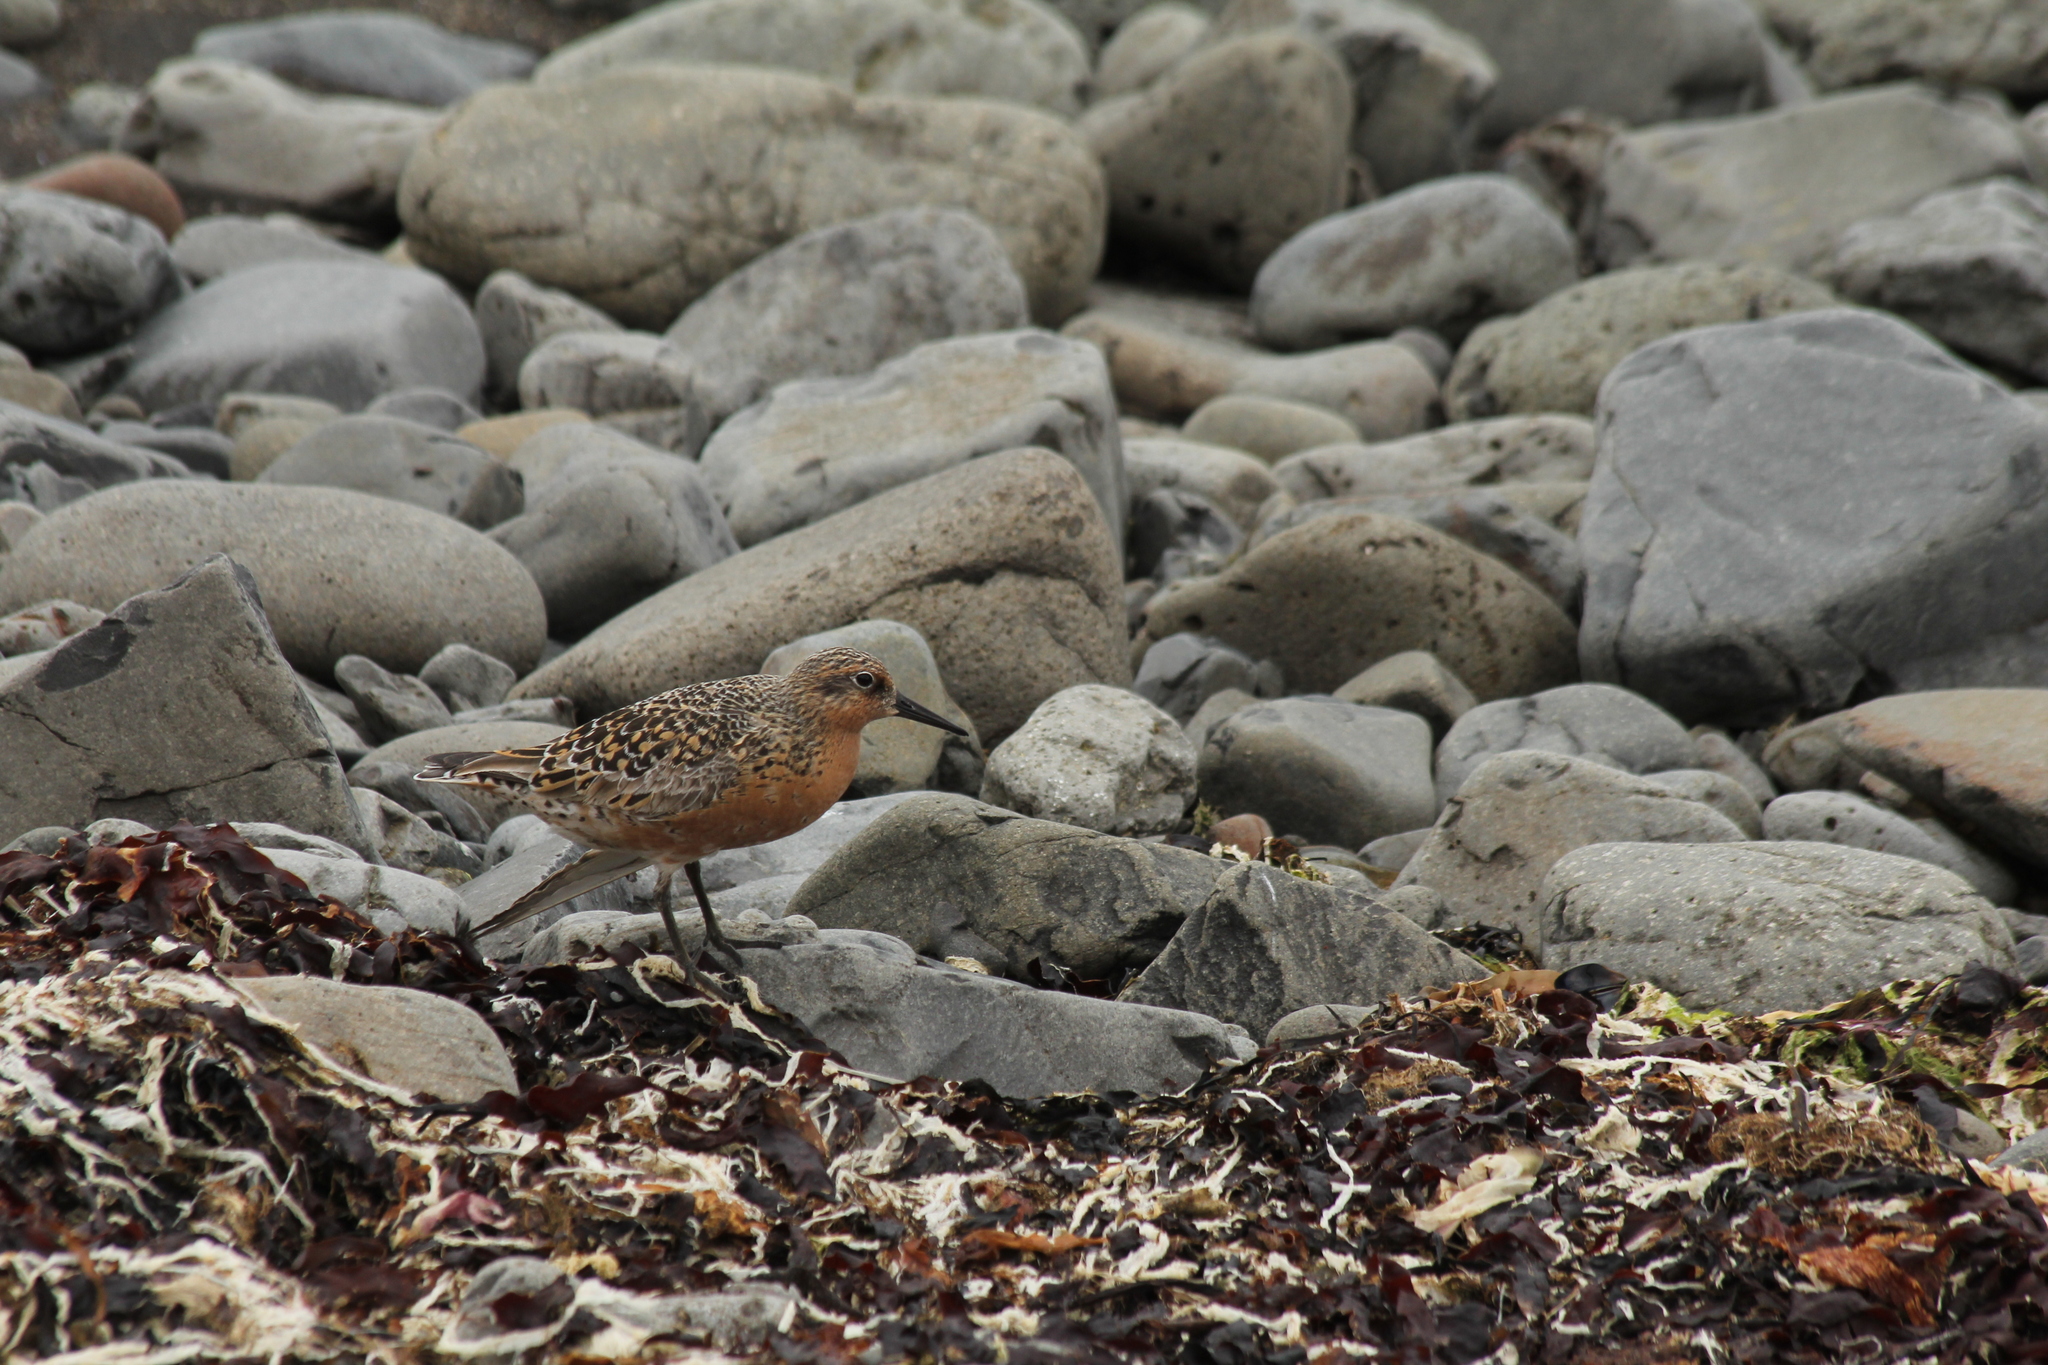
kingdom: Animalia
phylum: Chordata
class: Aves
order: Charadriiformes
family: Scolopacidae
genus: Calidris
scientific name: Calidris canutus
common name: Red knot
